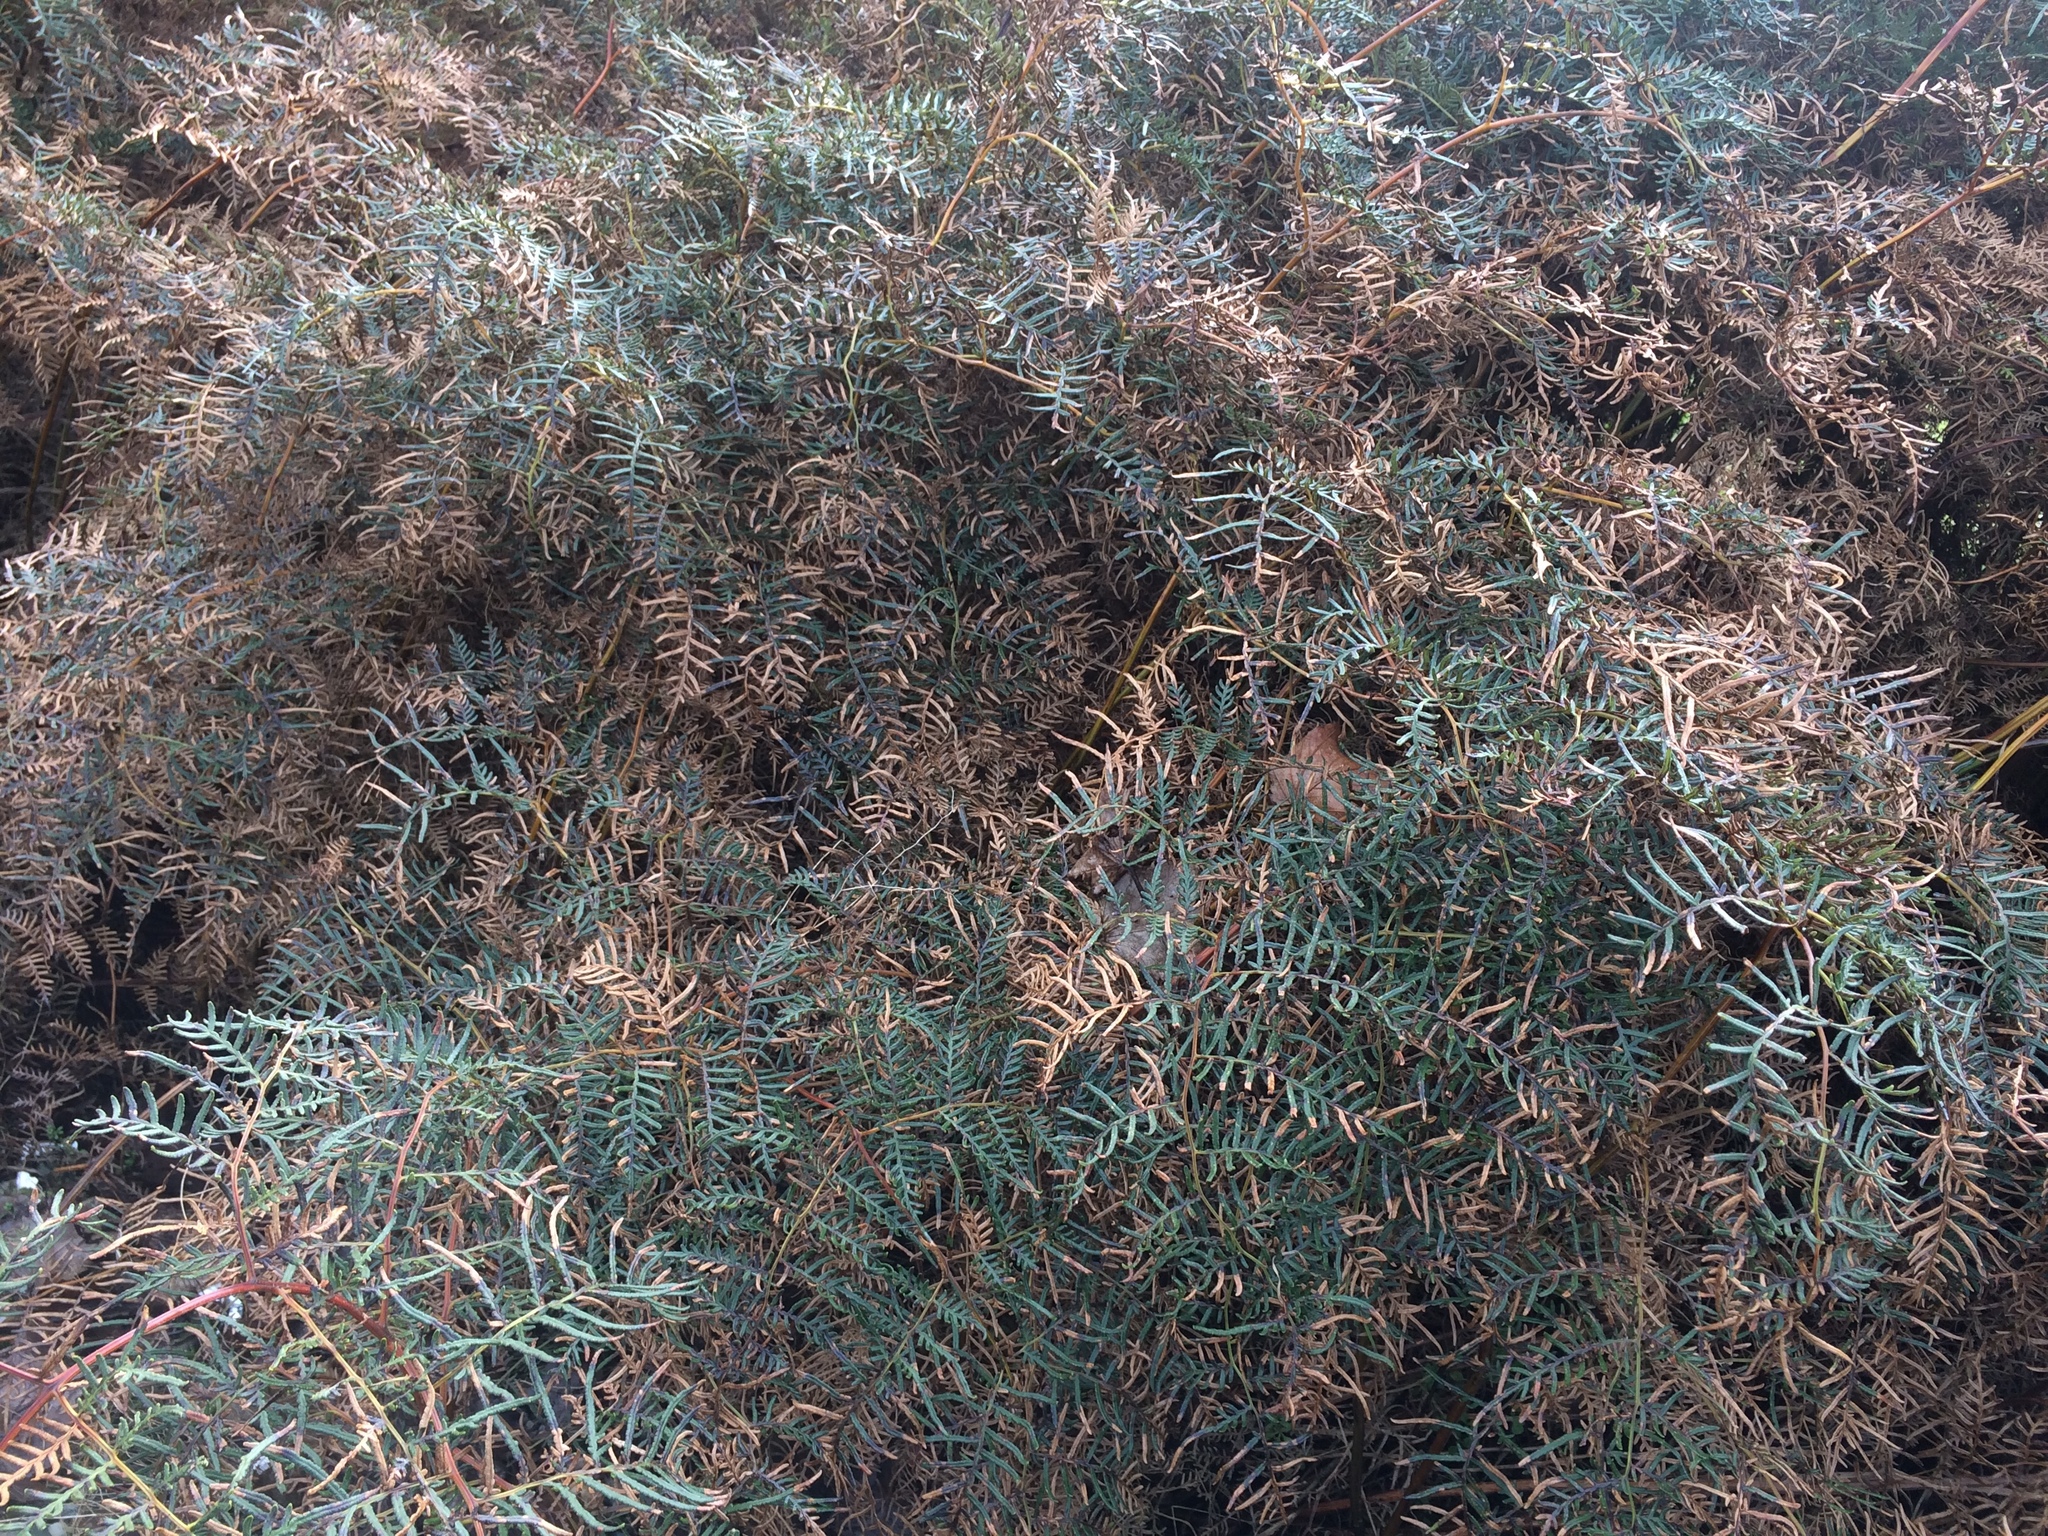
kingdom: Plantae
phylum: Tracheophyta
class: Polypodiopsida
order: Polypodiales
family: Dennstaedtiaceae
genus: Pteridium
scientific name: Pteridium esculentum
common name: Bracken fern
